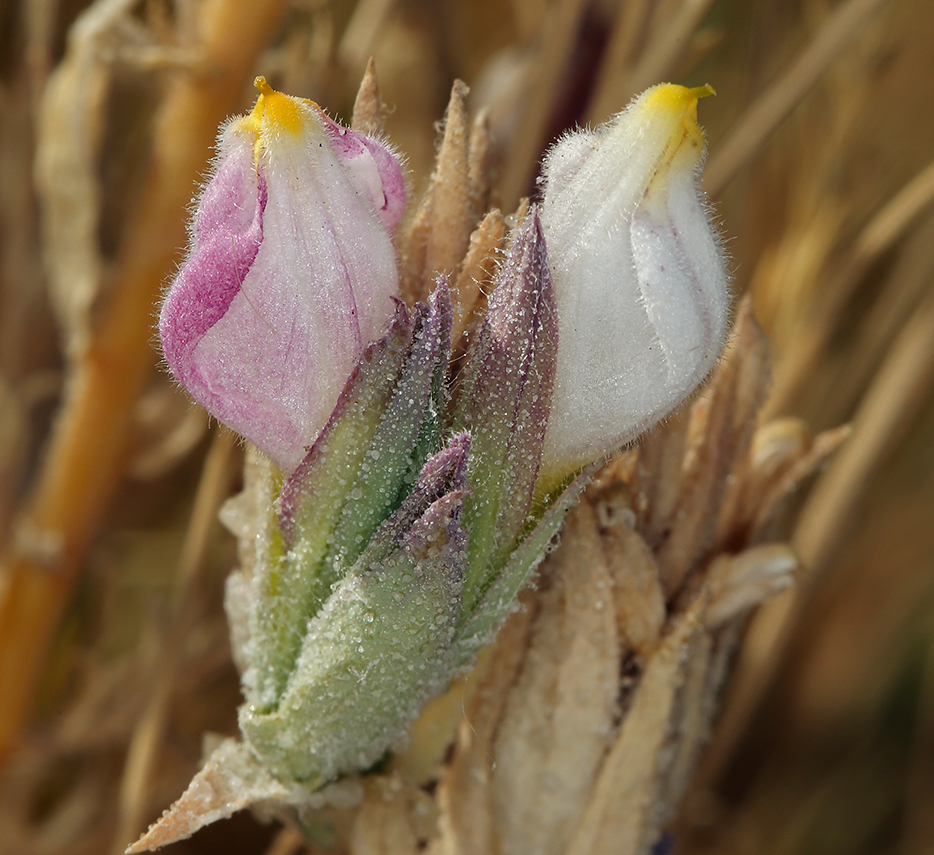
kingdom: Plantae
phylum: Tracheophyta
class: Magnoliopsida
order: Lamiales
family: Orobanchaceae
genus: Chloropyron
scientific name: Chloropyron maritimum
